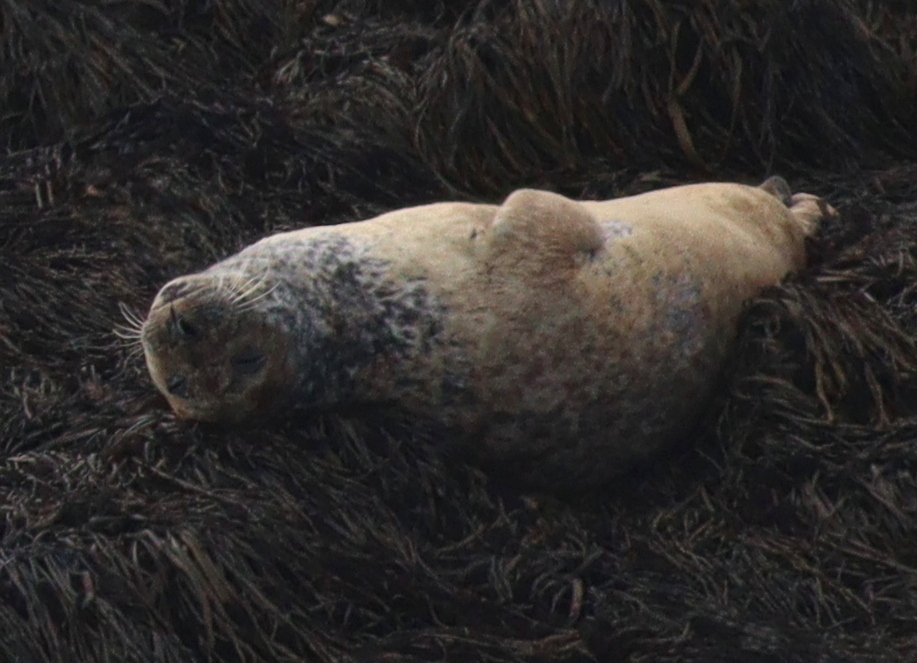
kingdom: Animalia
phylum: Chordata
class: Mammalia
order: Carnivora
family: Phocidae
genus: Phoca
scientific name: Phoca vitulina
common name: Harbor seal
